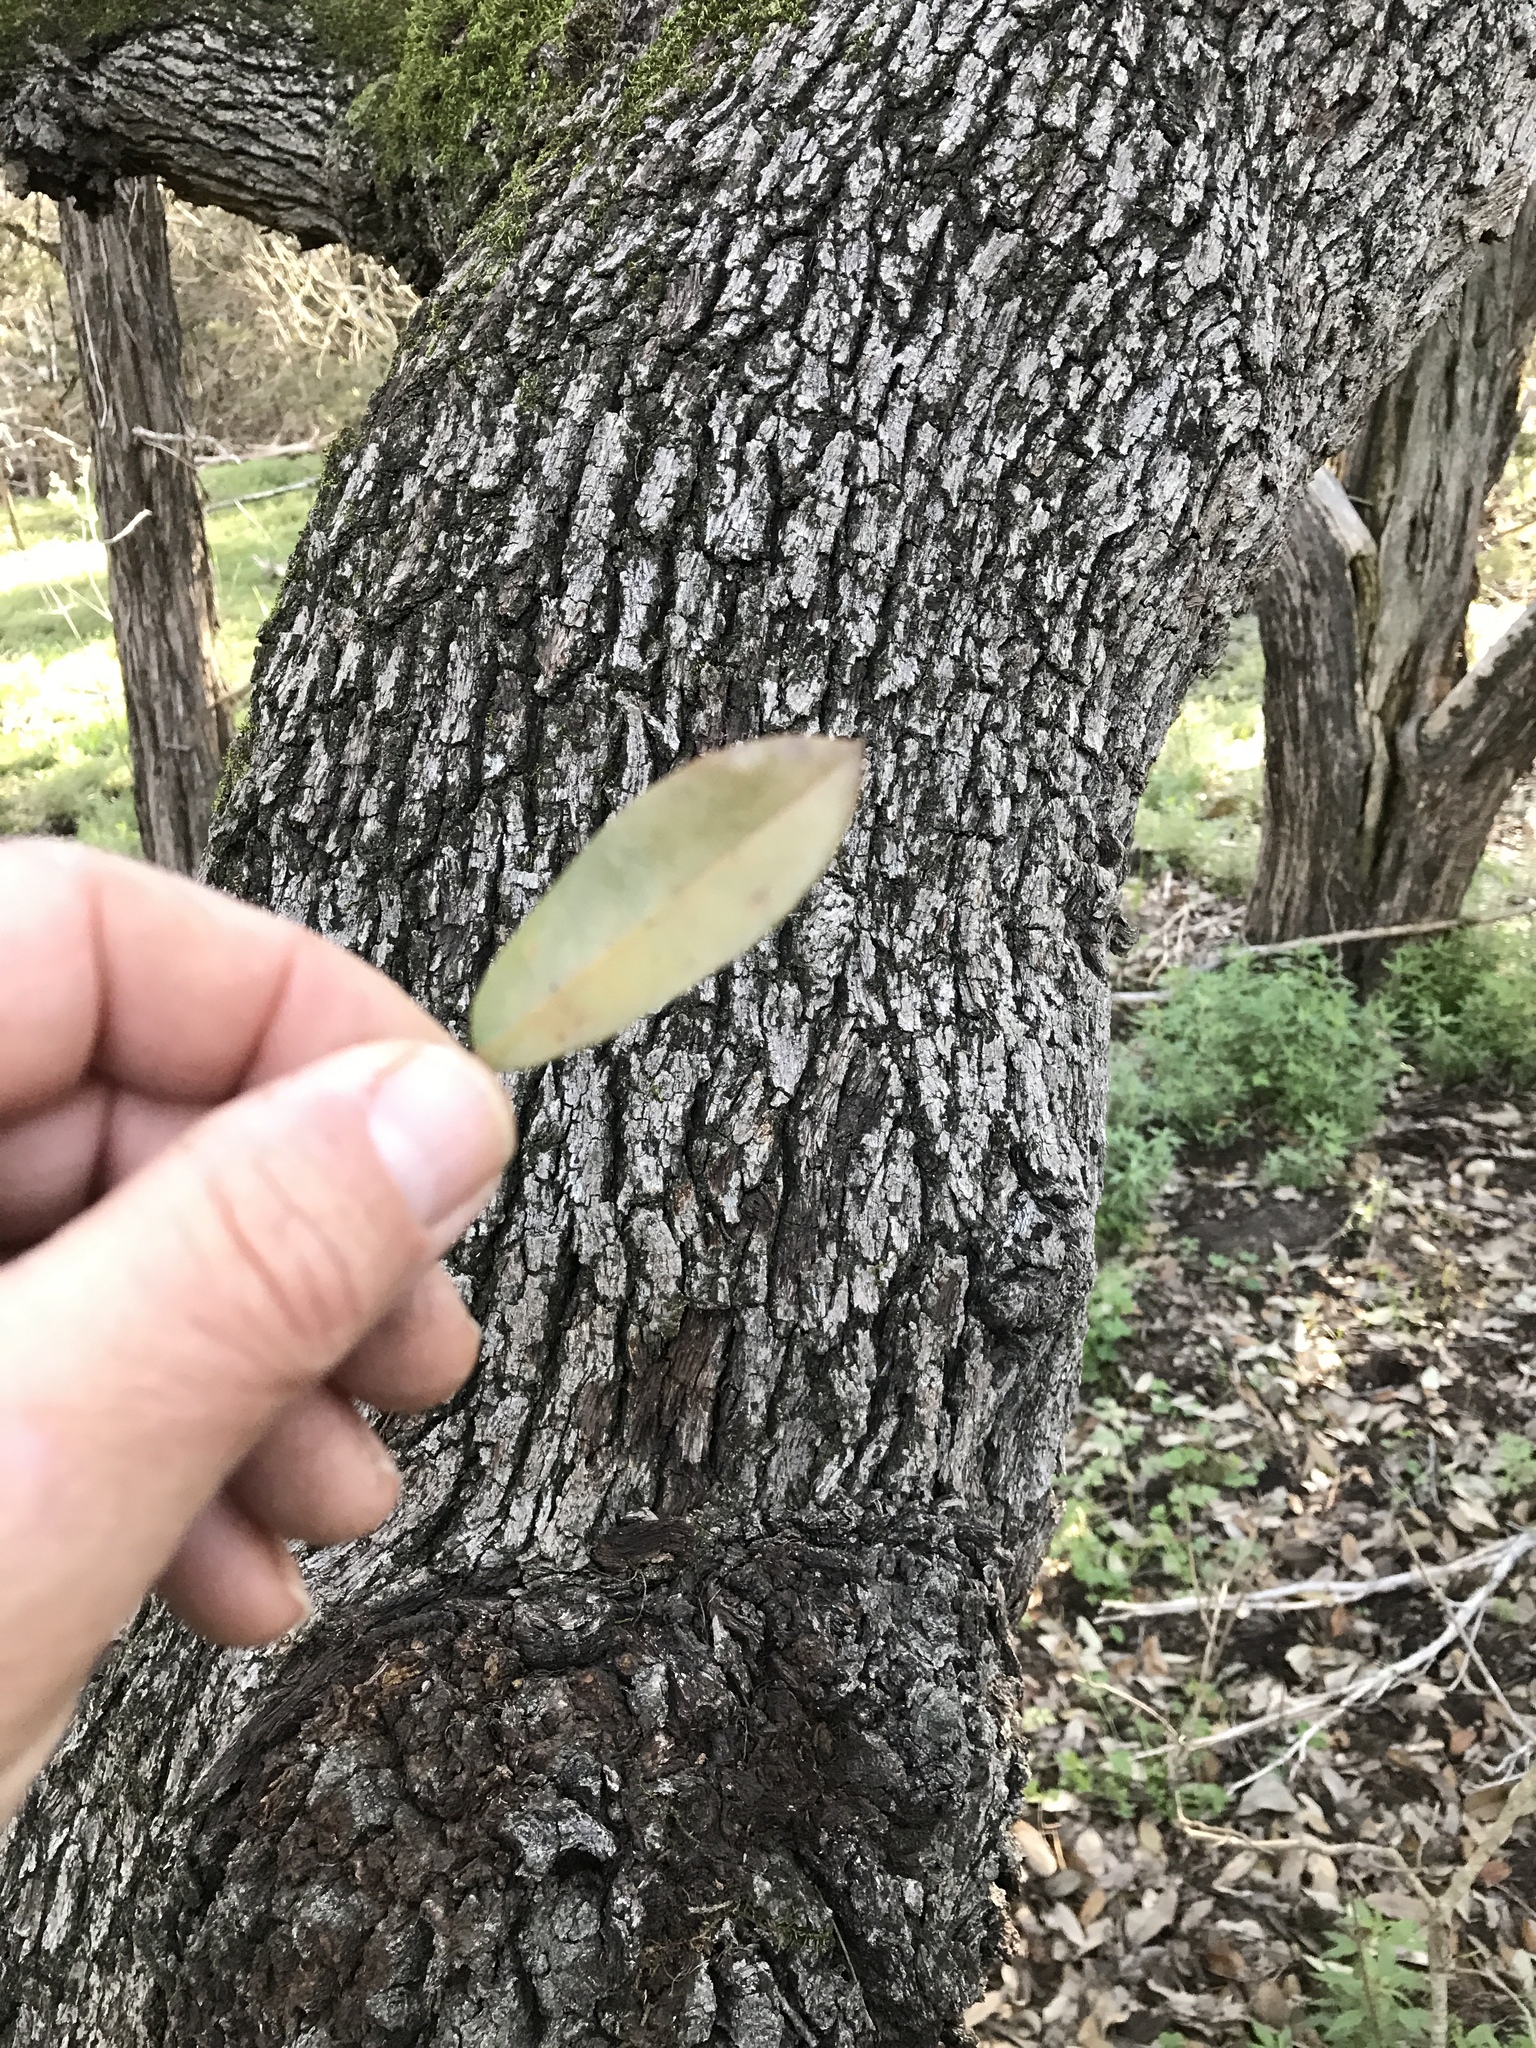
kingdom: Plantae
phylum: Tracheophyta
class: Magnoliopsida
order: Fagales
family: Fagaceae
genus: Quercus
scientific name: Quercus fusiformis
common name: Texas live oak
